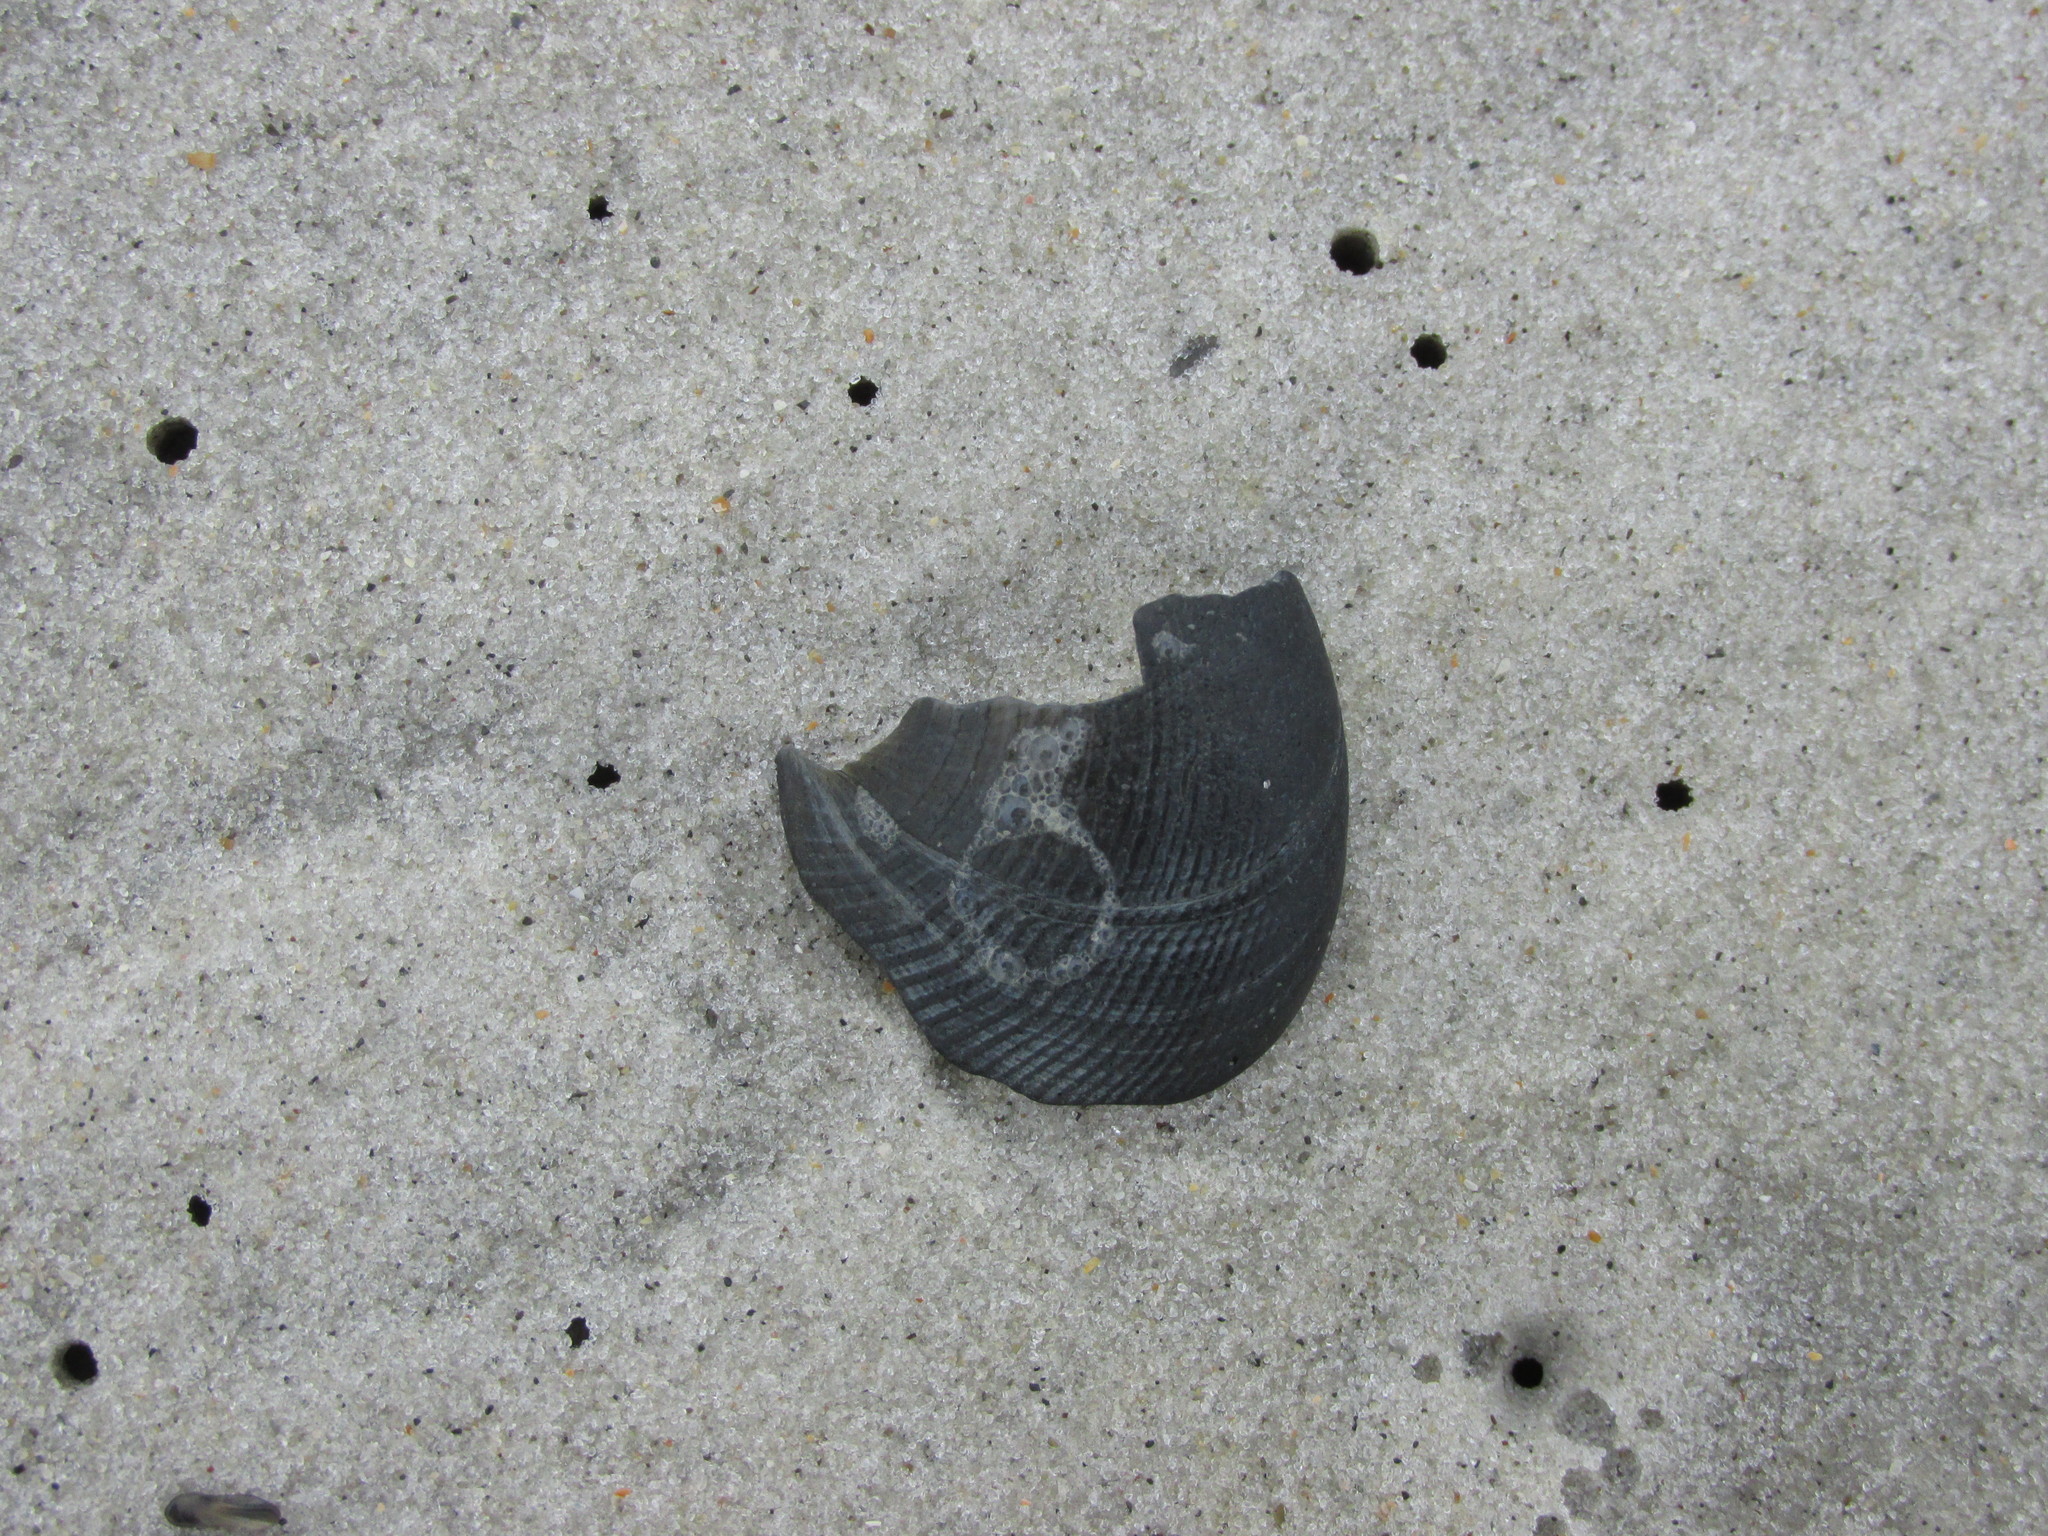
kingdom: Animalia
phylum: Mollusca
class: Gastropoda
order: Littorinimorpha
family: Naticidae
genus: Sinum
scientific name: Sinum perspectivum
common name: White baby ear
